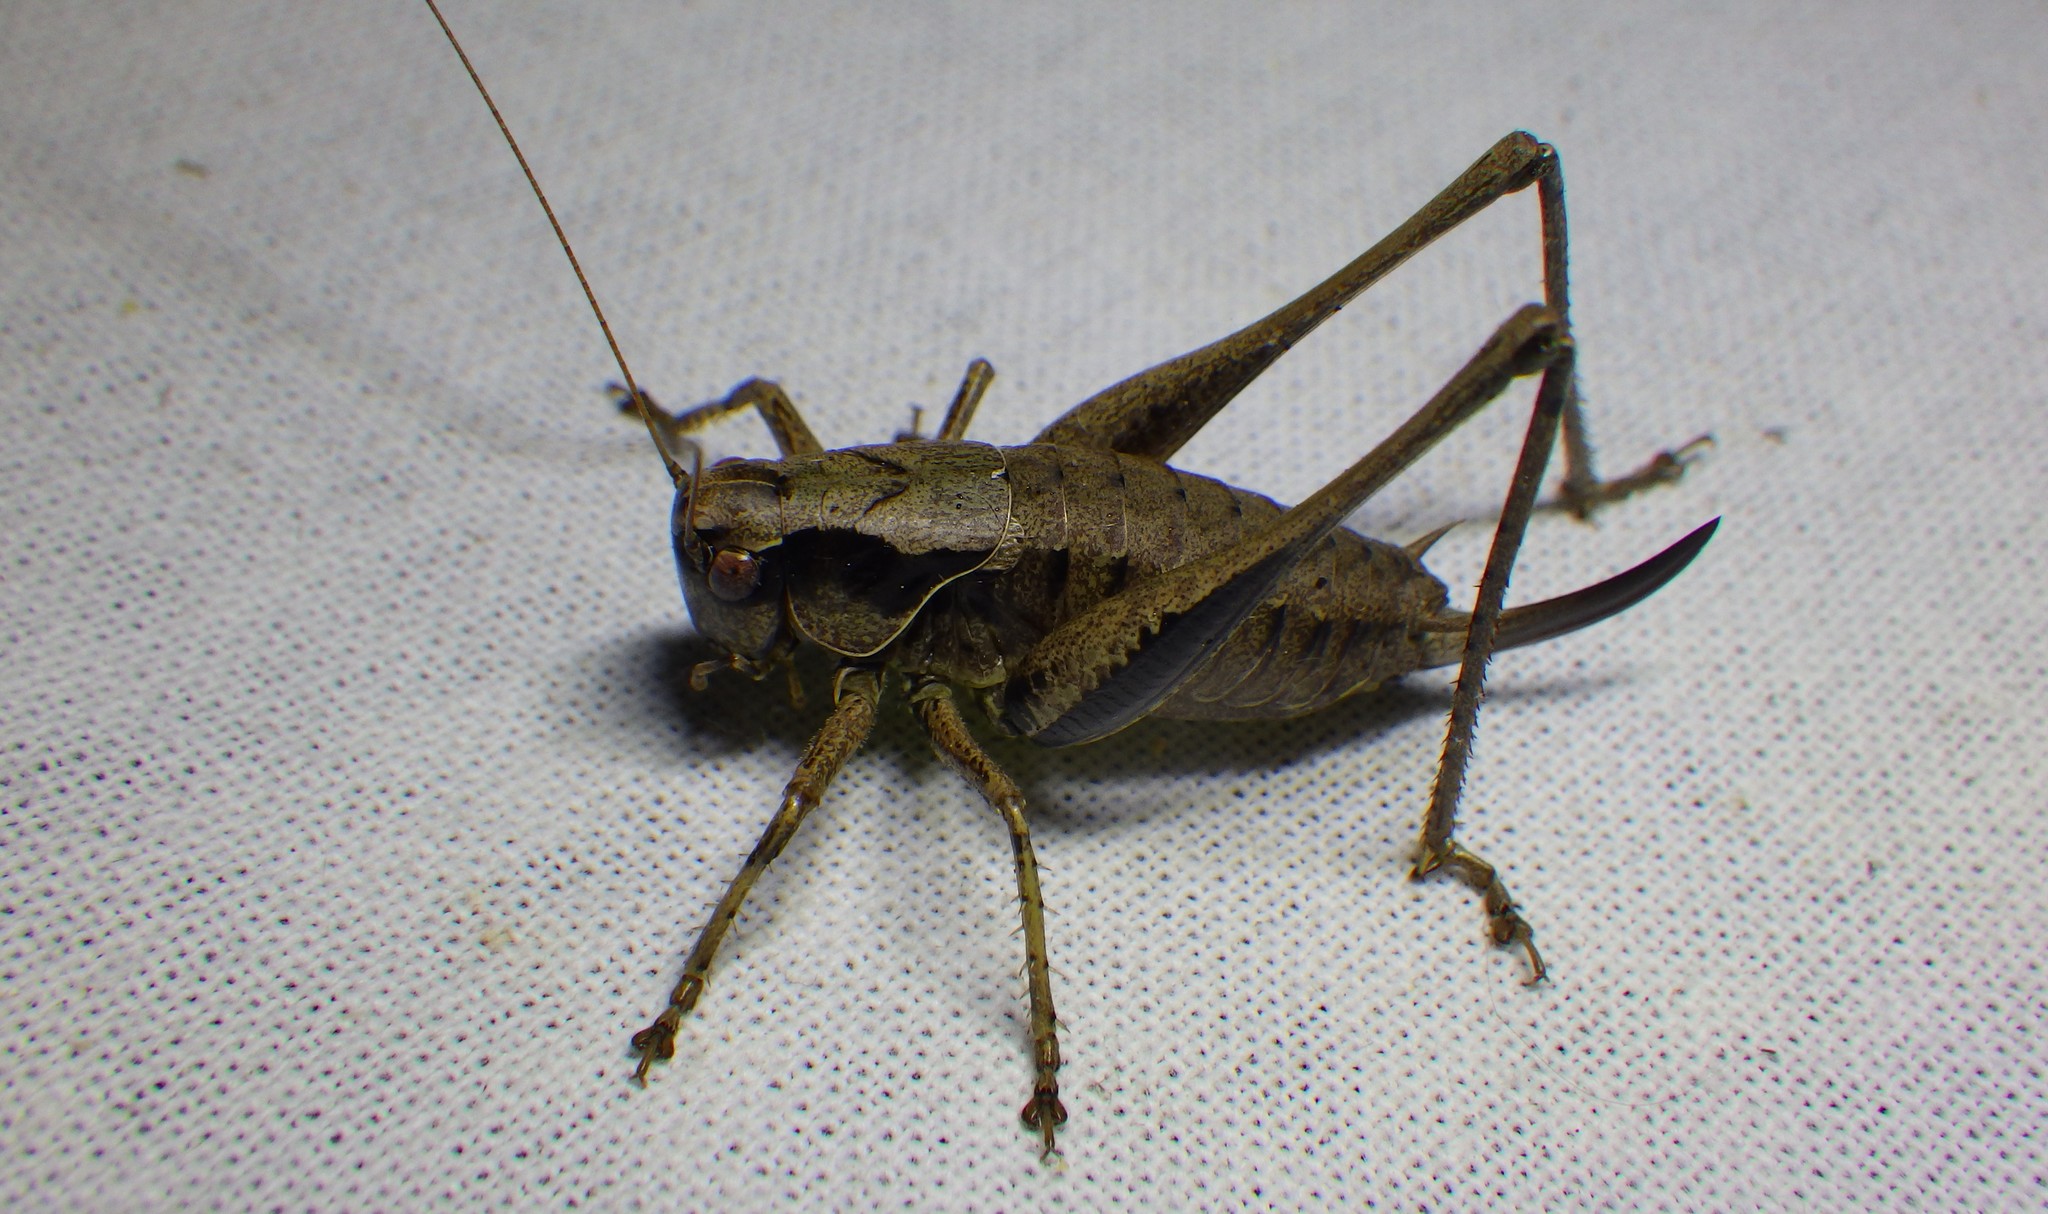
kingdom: Animalia
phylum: Arthropoda
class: Insecta
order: Orthoptera
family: Tettigoniidae
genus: Pholidoptera
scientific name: Pholidoptera griseoaptera
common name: Dark bush-cricket
